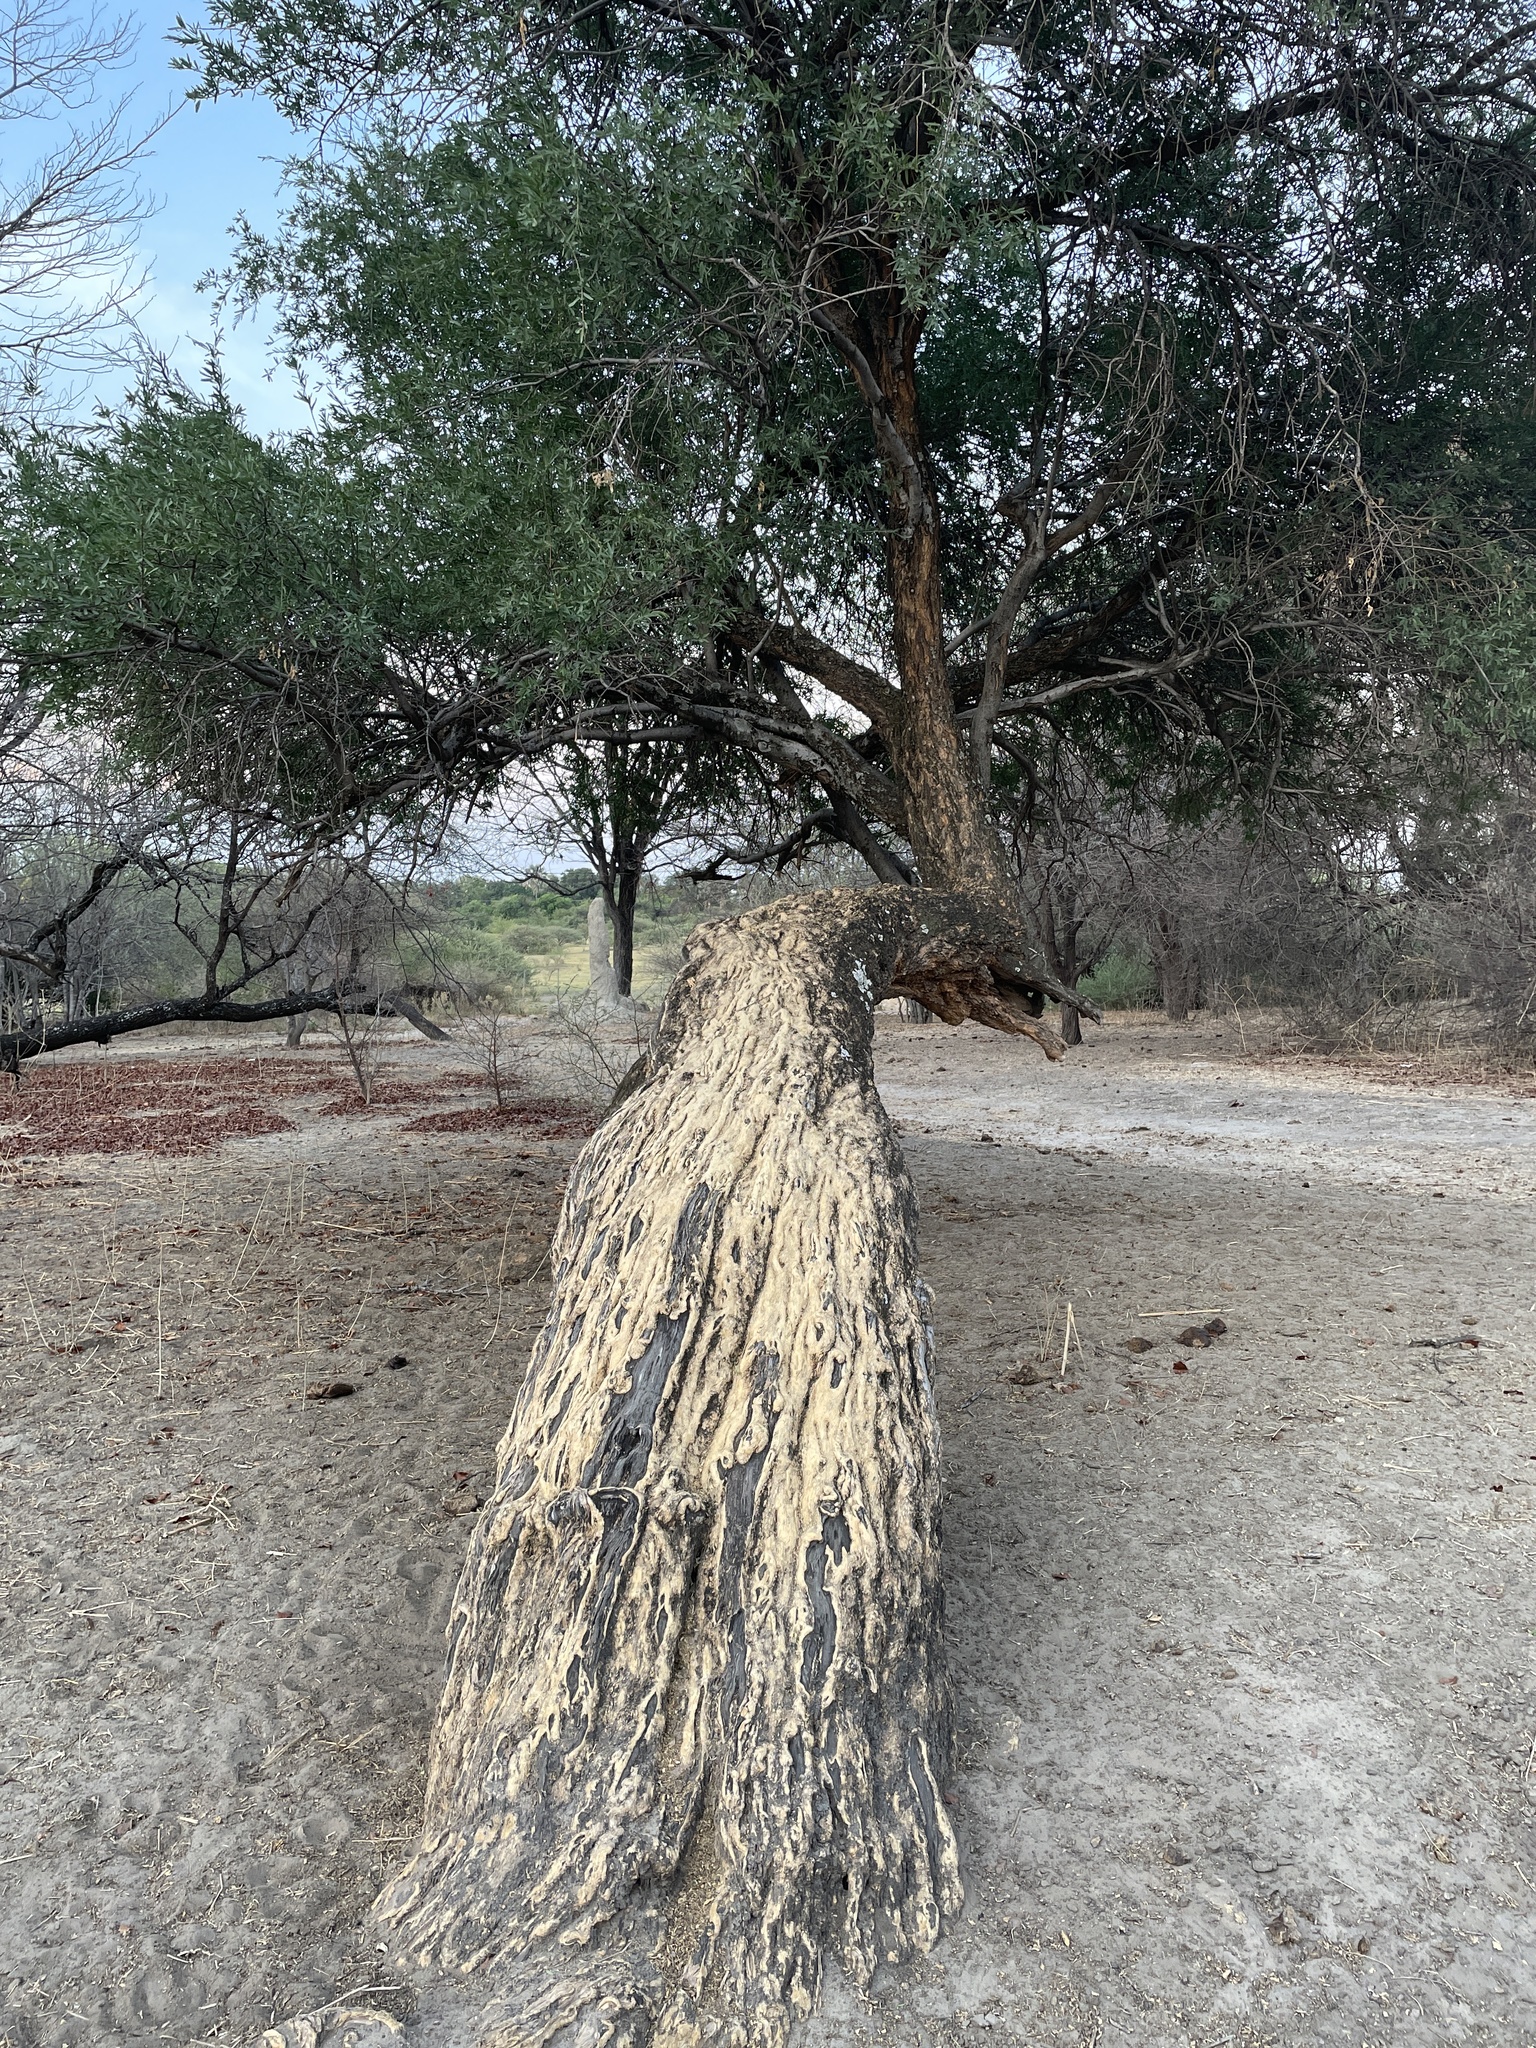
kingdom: Plantae
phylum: Tracheophyta
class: Magnoliopsida
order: Brassicales
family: Capparaceae
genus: Boscia
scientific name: Boscia albitrunca
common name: Caper bush
